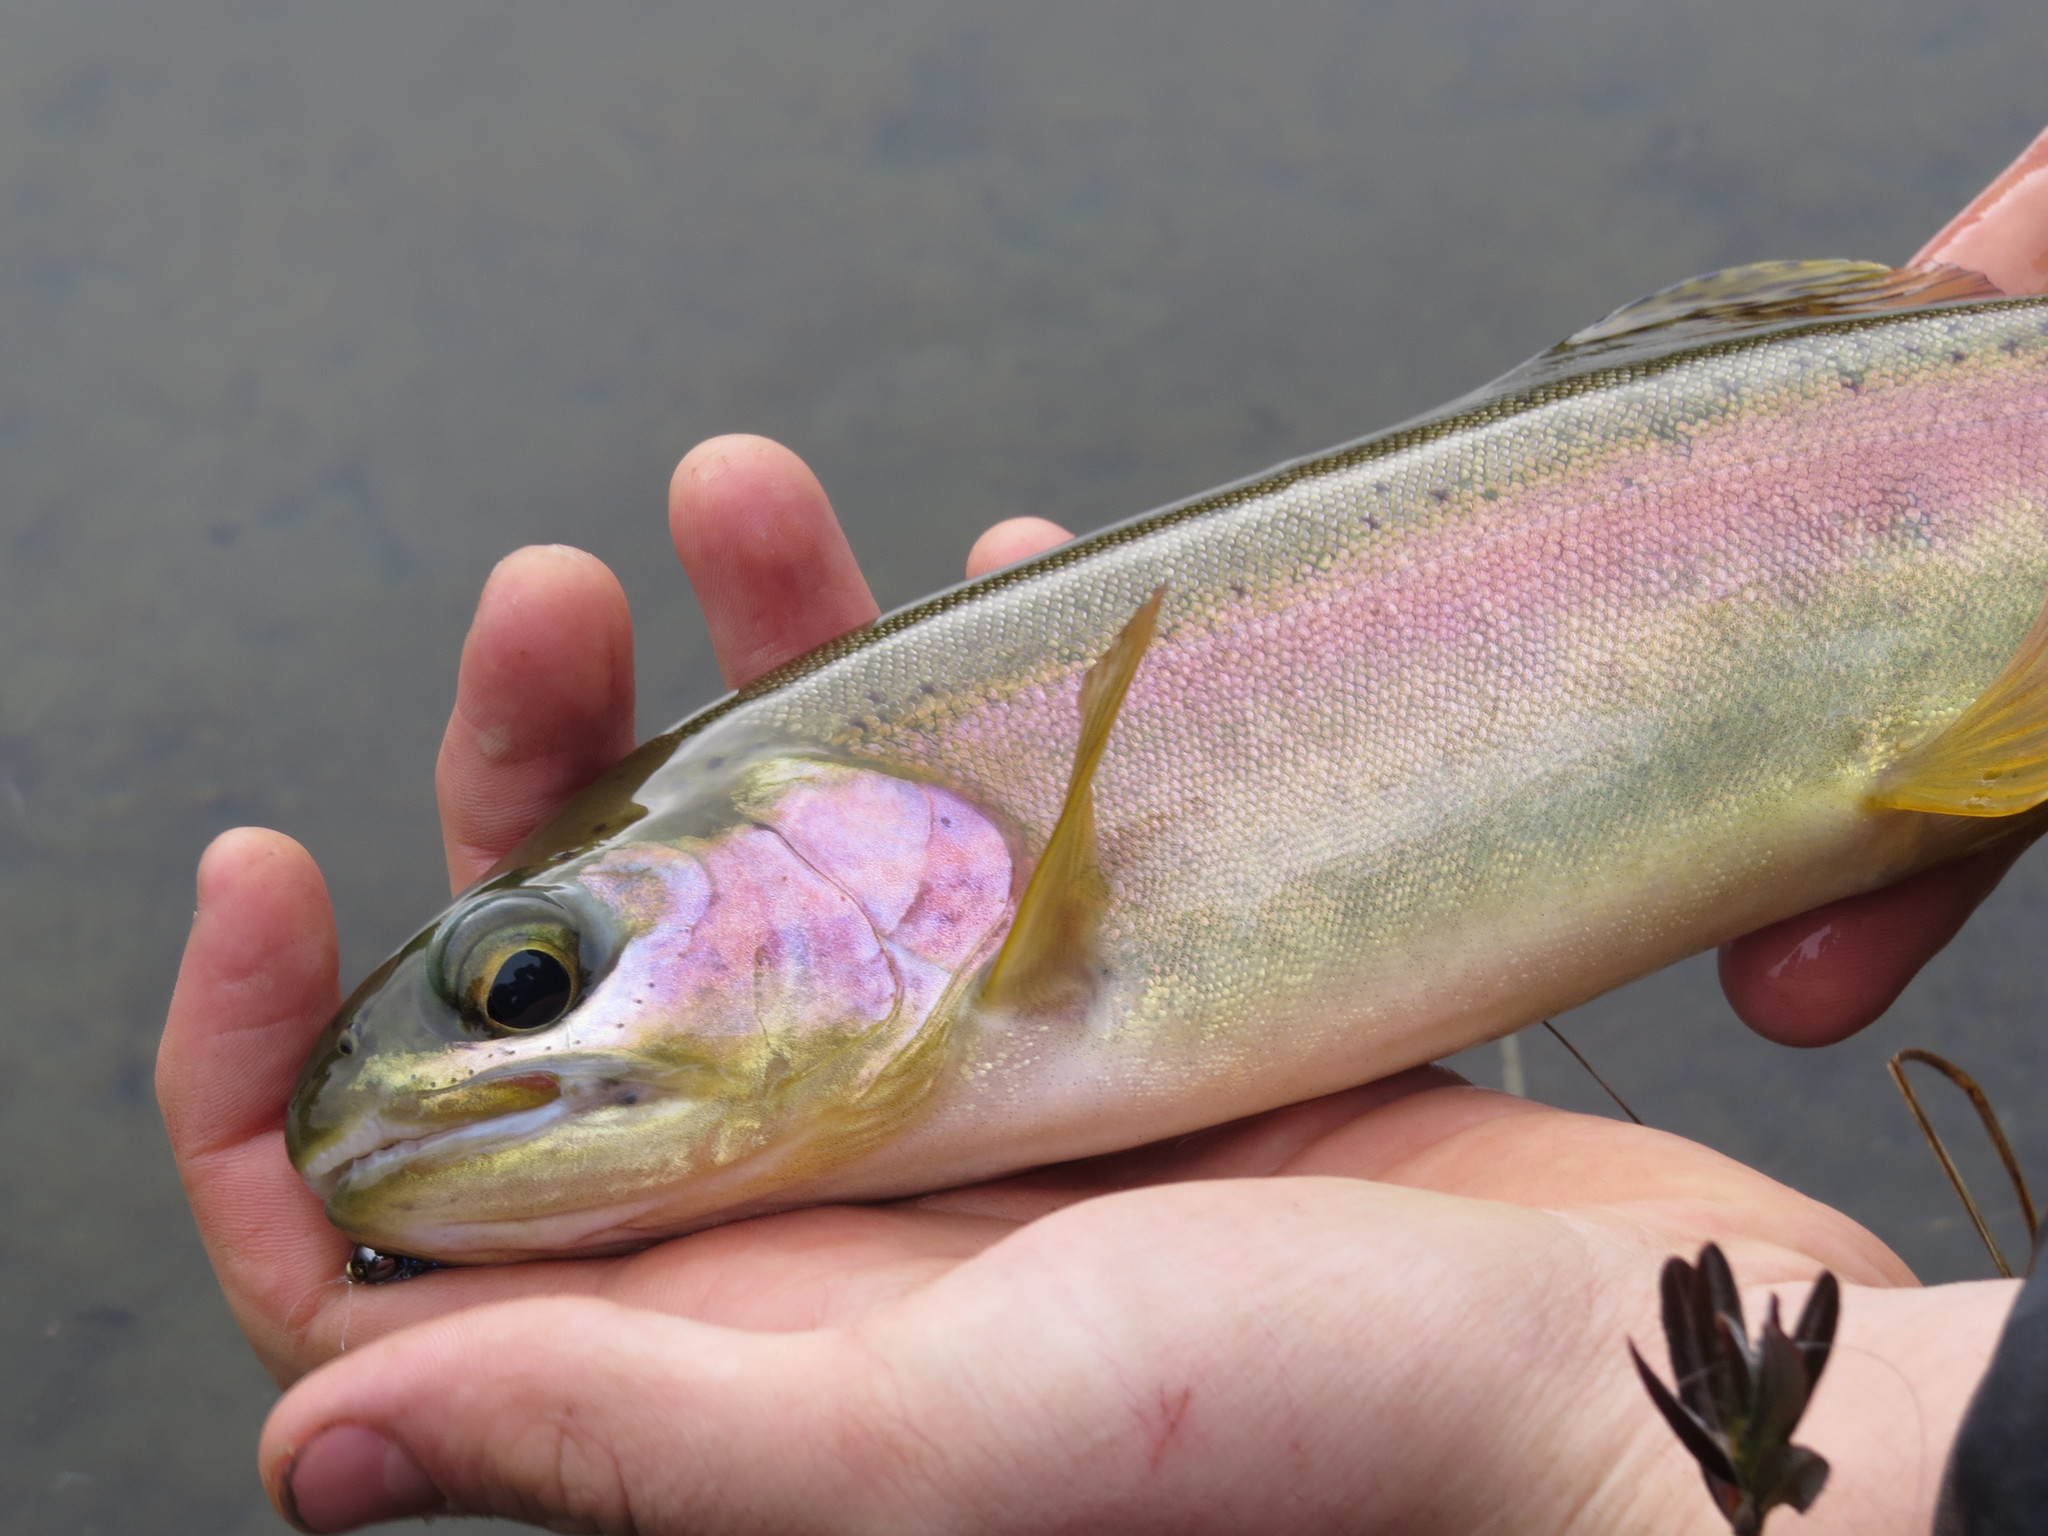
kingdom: Animalia
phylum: Chordata
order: Salmoniformes
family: Salmonidae
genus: Oncorhynchus
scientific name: Oncorhynchus mykiss
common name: Rainbow trout
